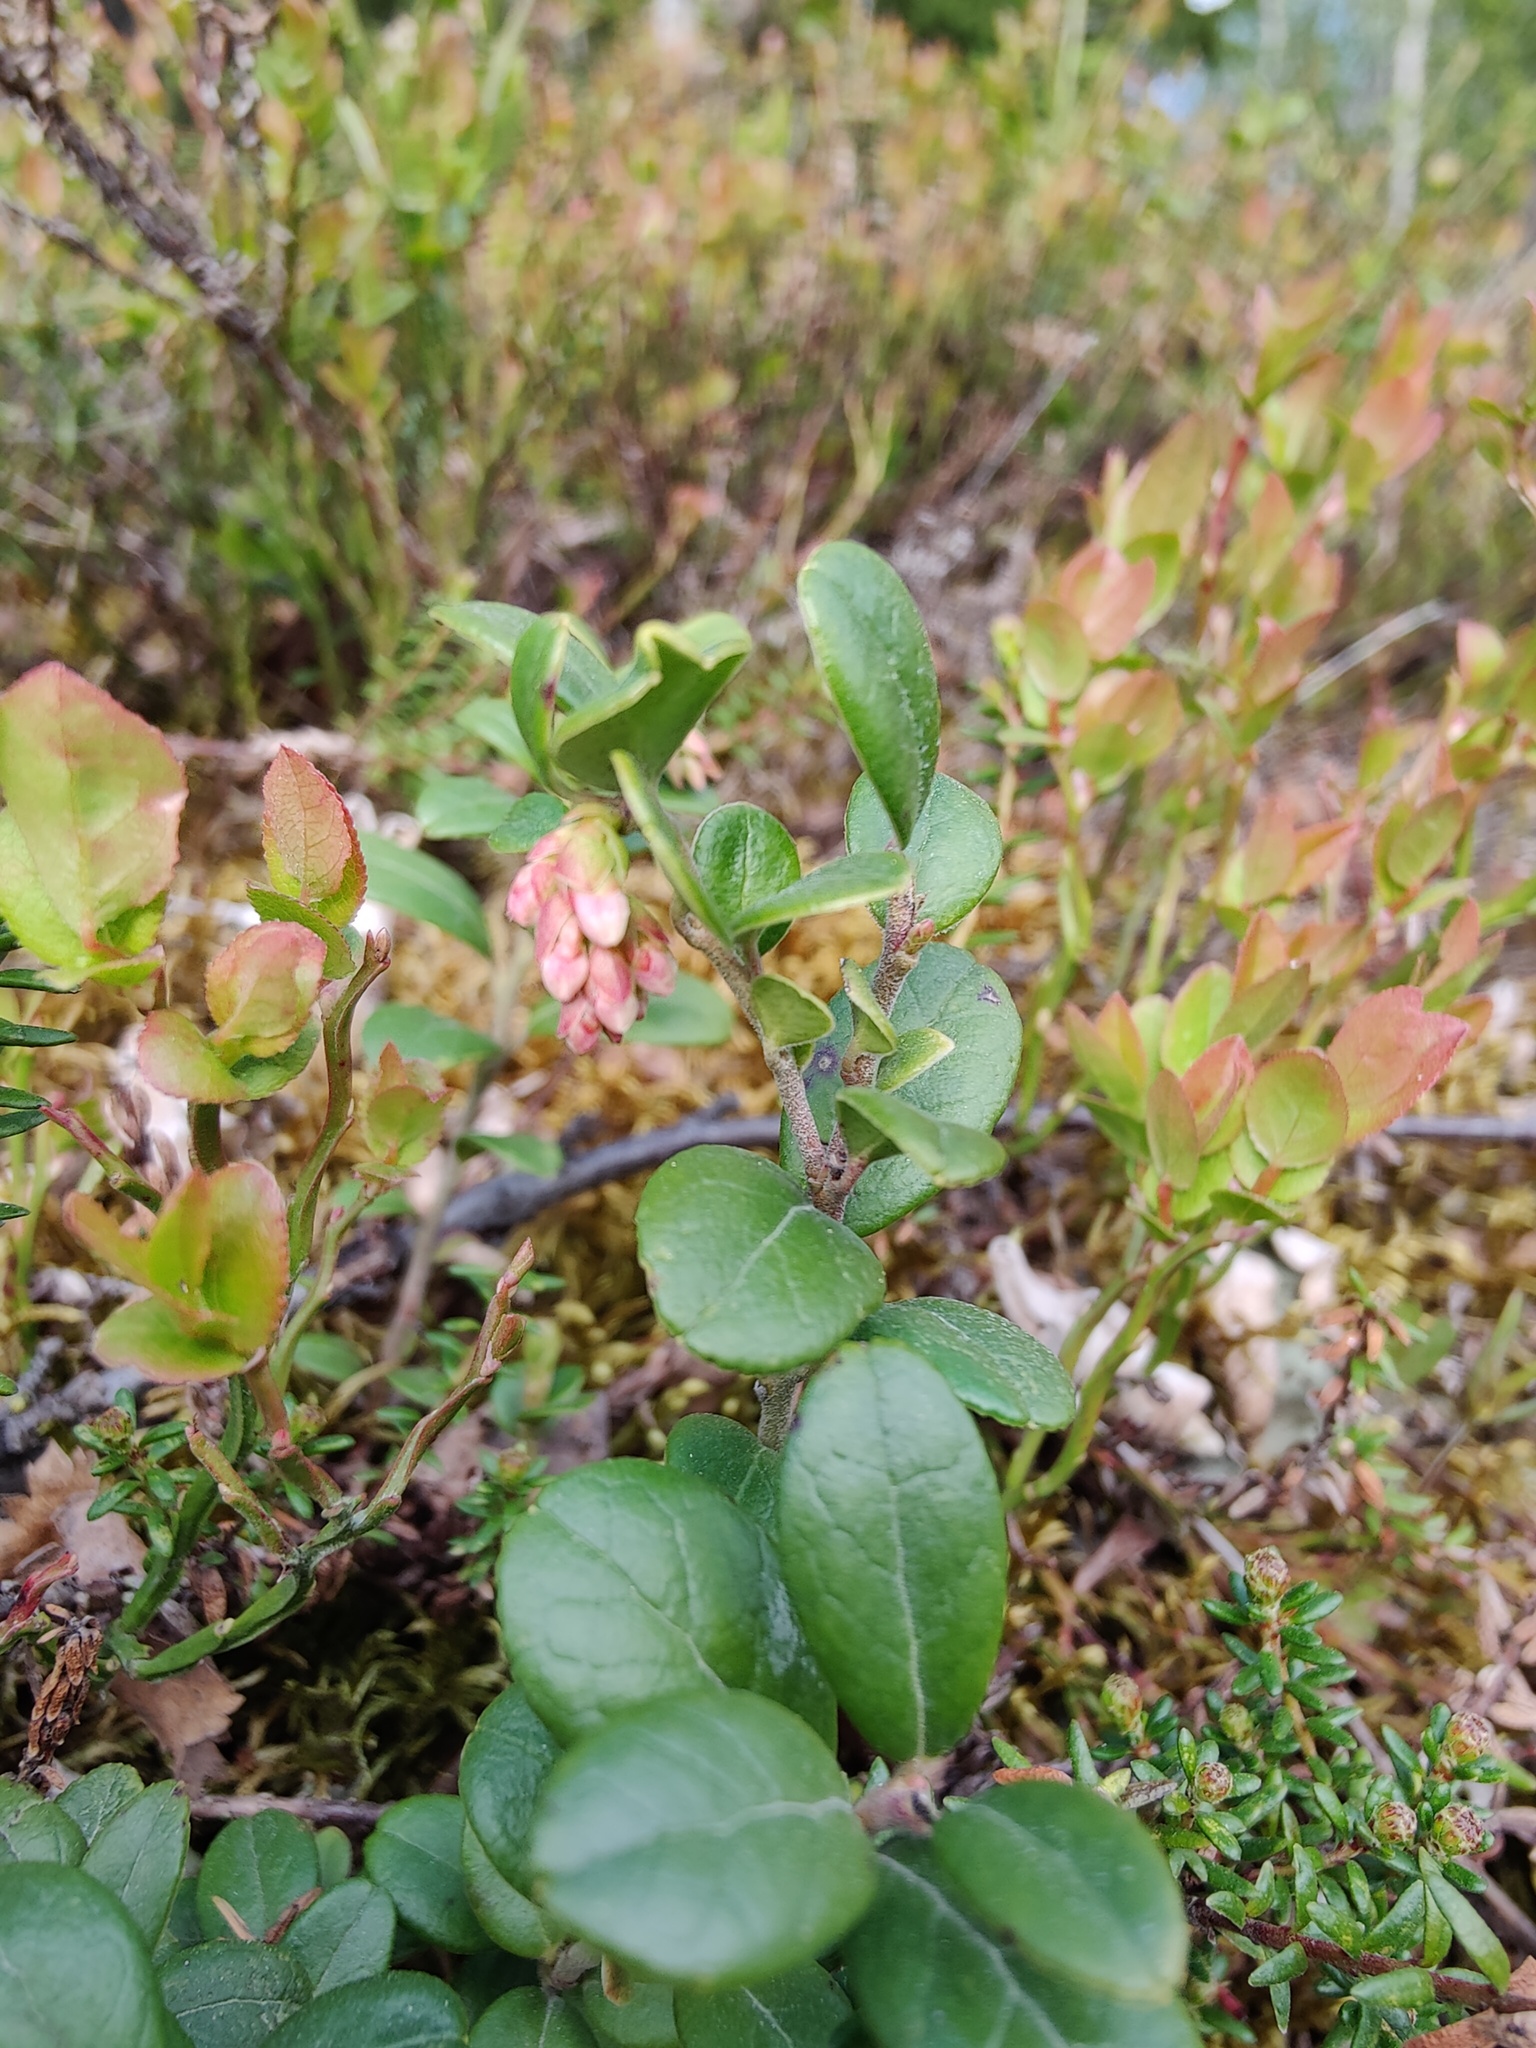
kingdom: Plantae
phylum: Tracheophyta
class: Magnoliopsida
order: Ericales
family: Ericaceae
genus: Vaccinium
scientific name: Vaccinium vitis-idaea
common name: Cowberry
